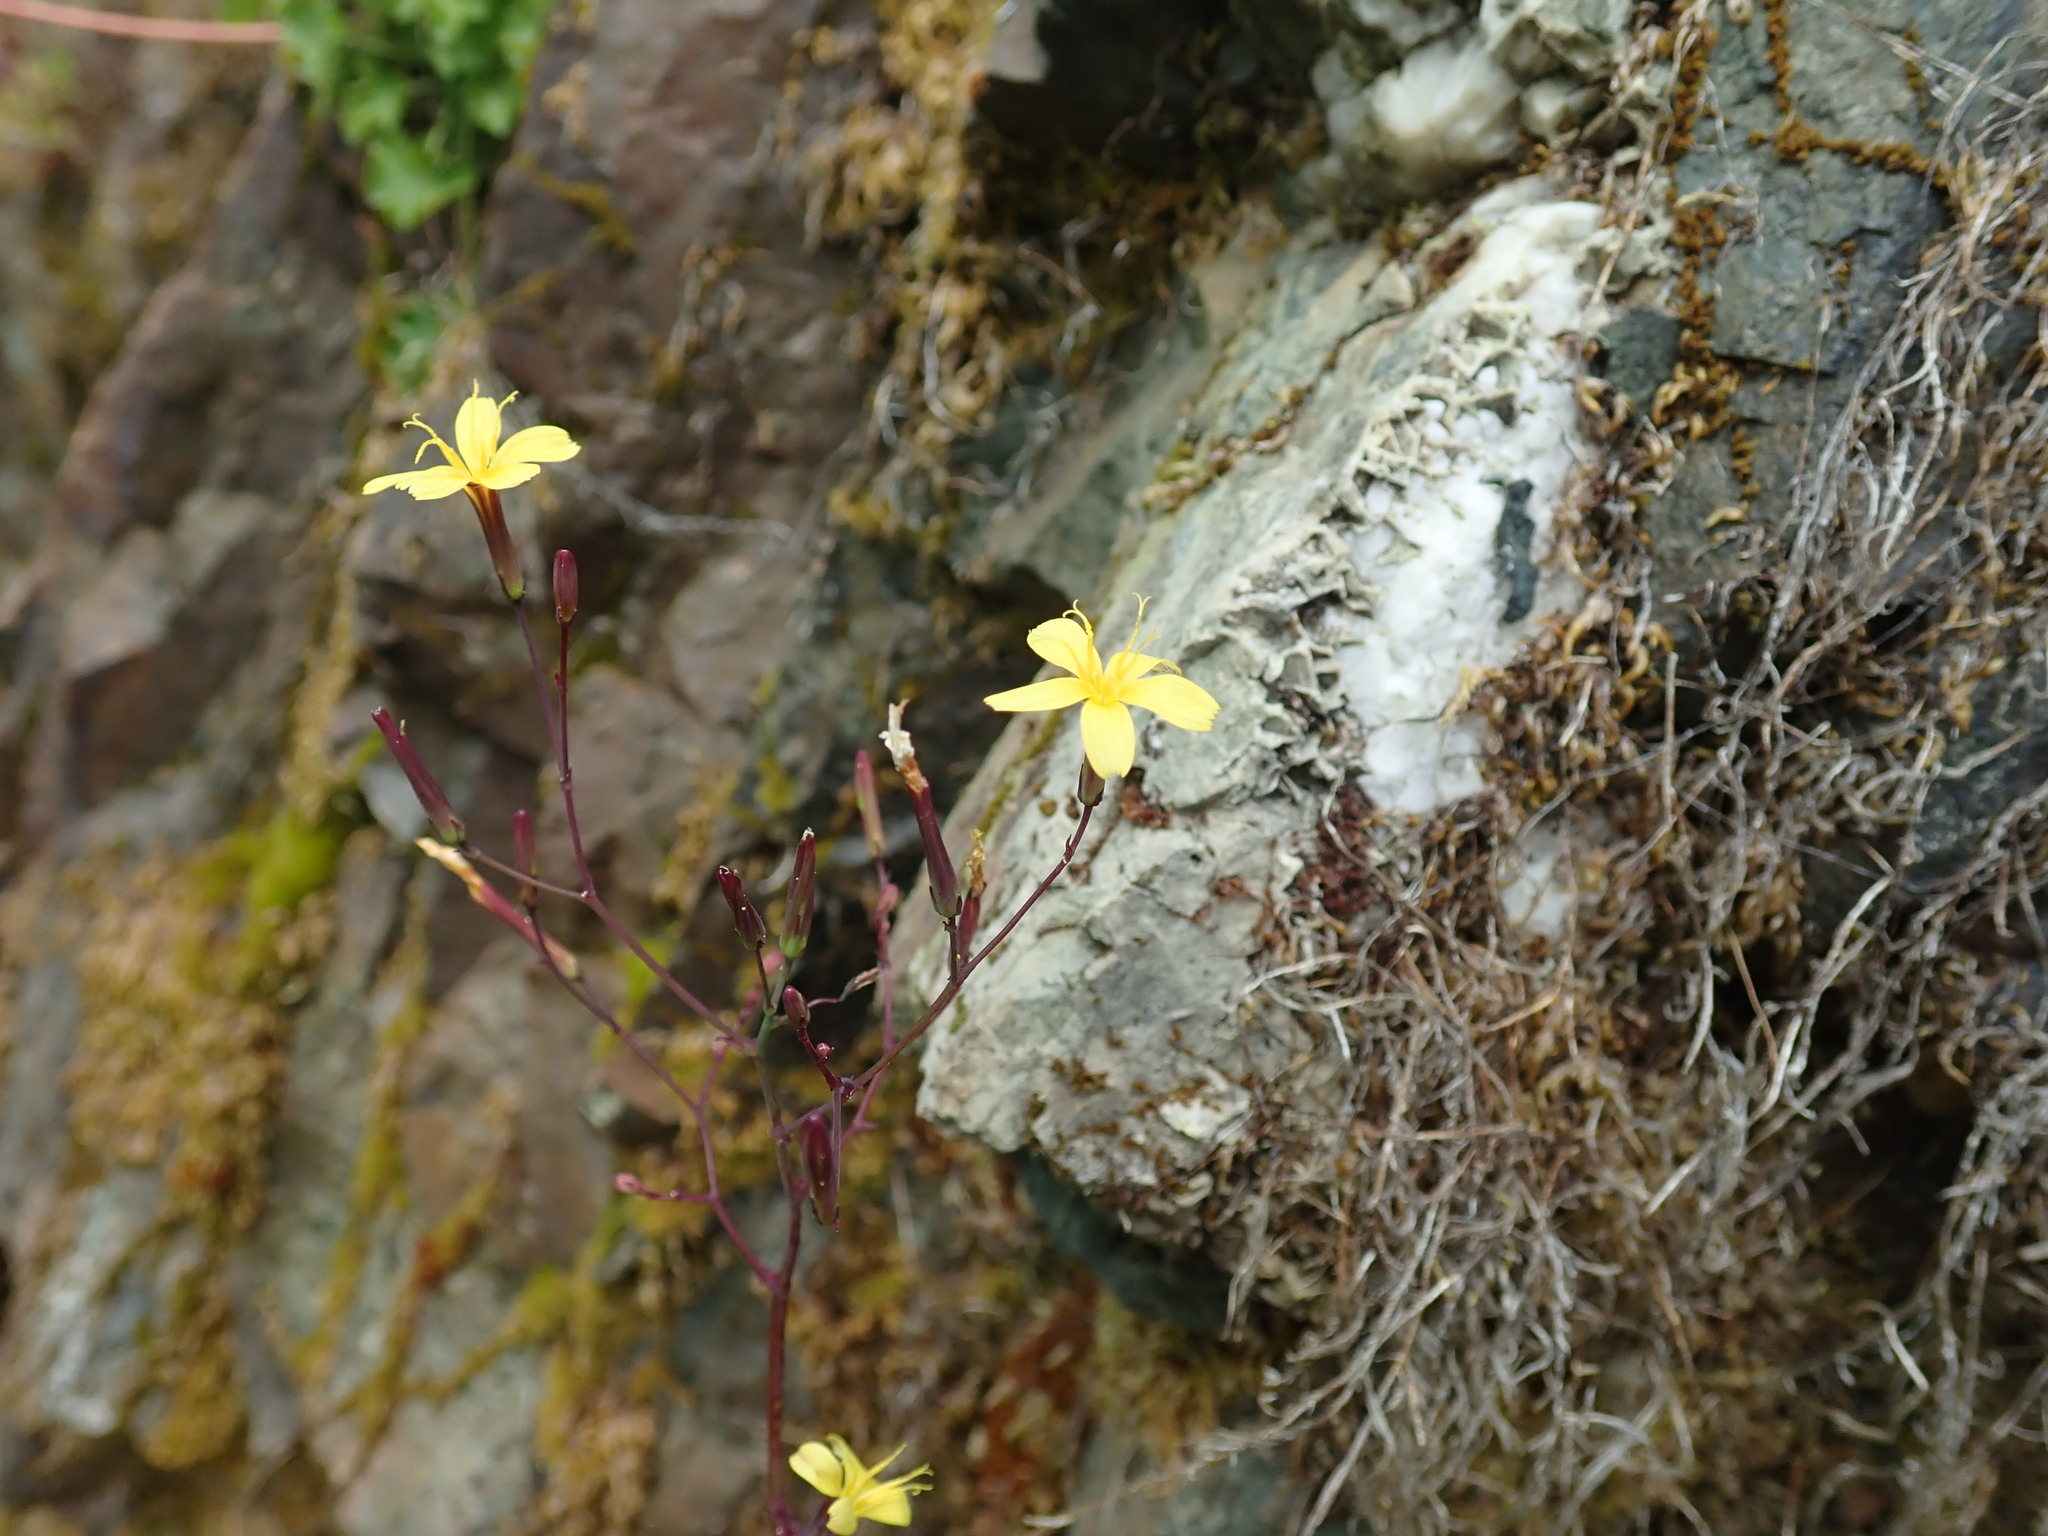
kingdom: Plantae
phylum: Tracheophyta
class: Magnoliopsida
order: Asterales
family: Asteraceae
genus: Mycelis
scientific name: Mycelis muralis
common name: Wall lettuce
